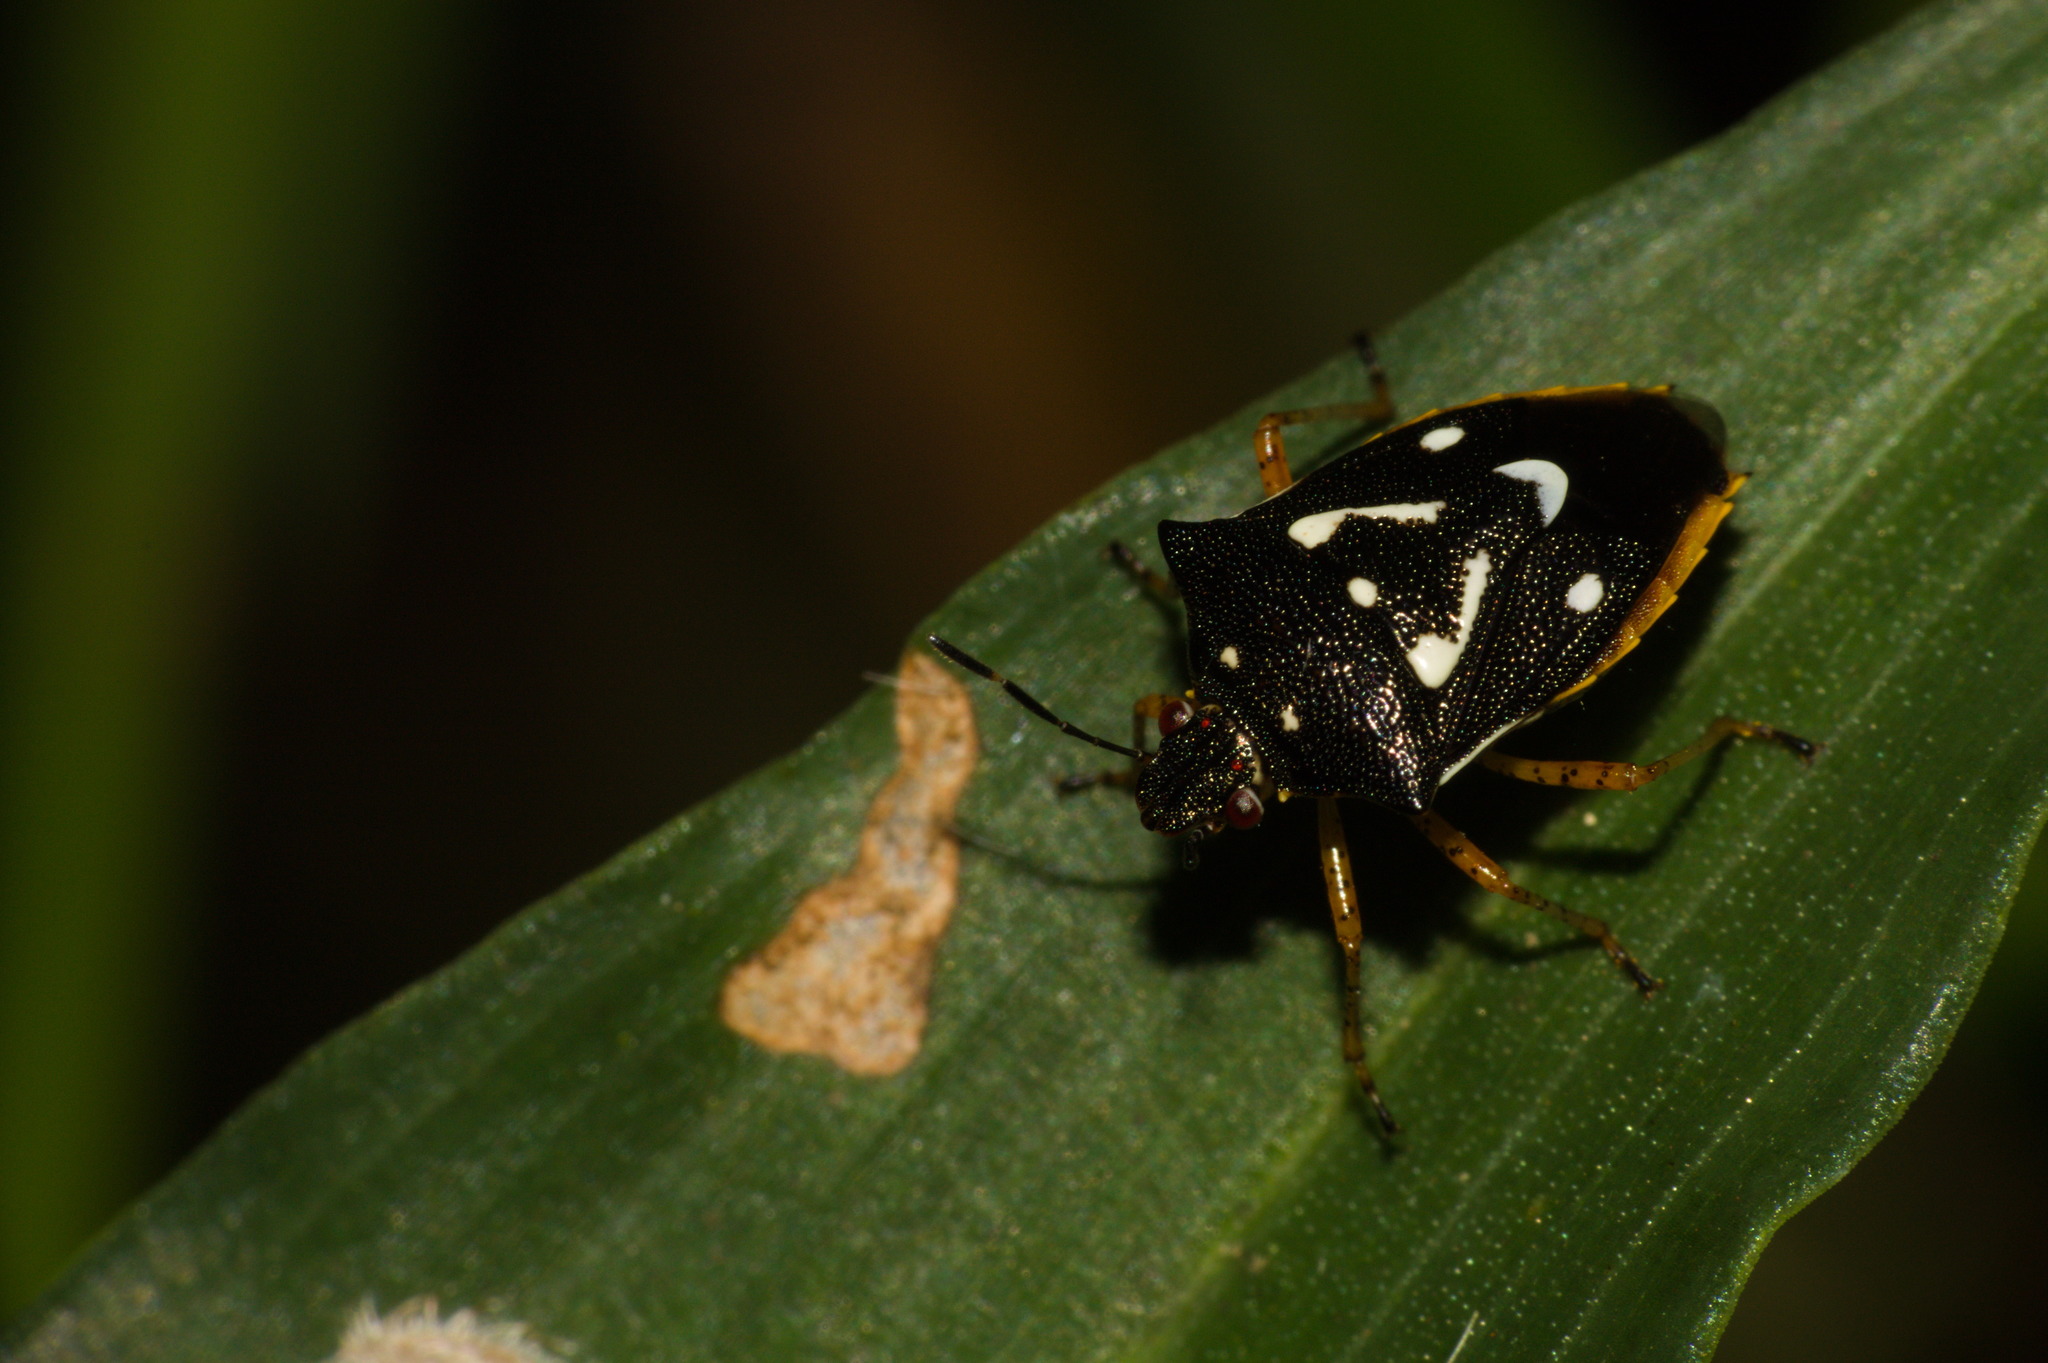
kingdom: Animalia
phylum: Arthropoda
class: Insecta
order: Hemiptera
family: Pentatomidae
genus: Mormidea
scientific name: Mormidea v-luteum
